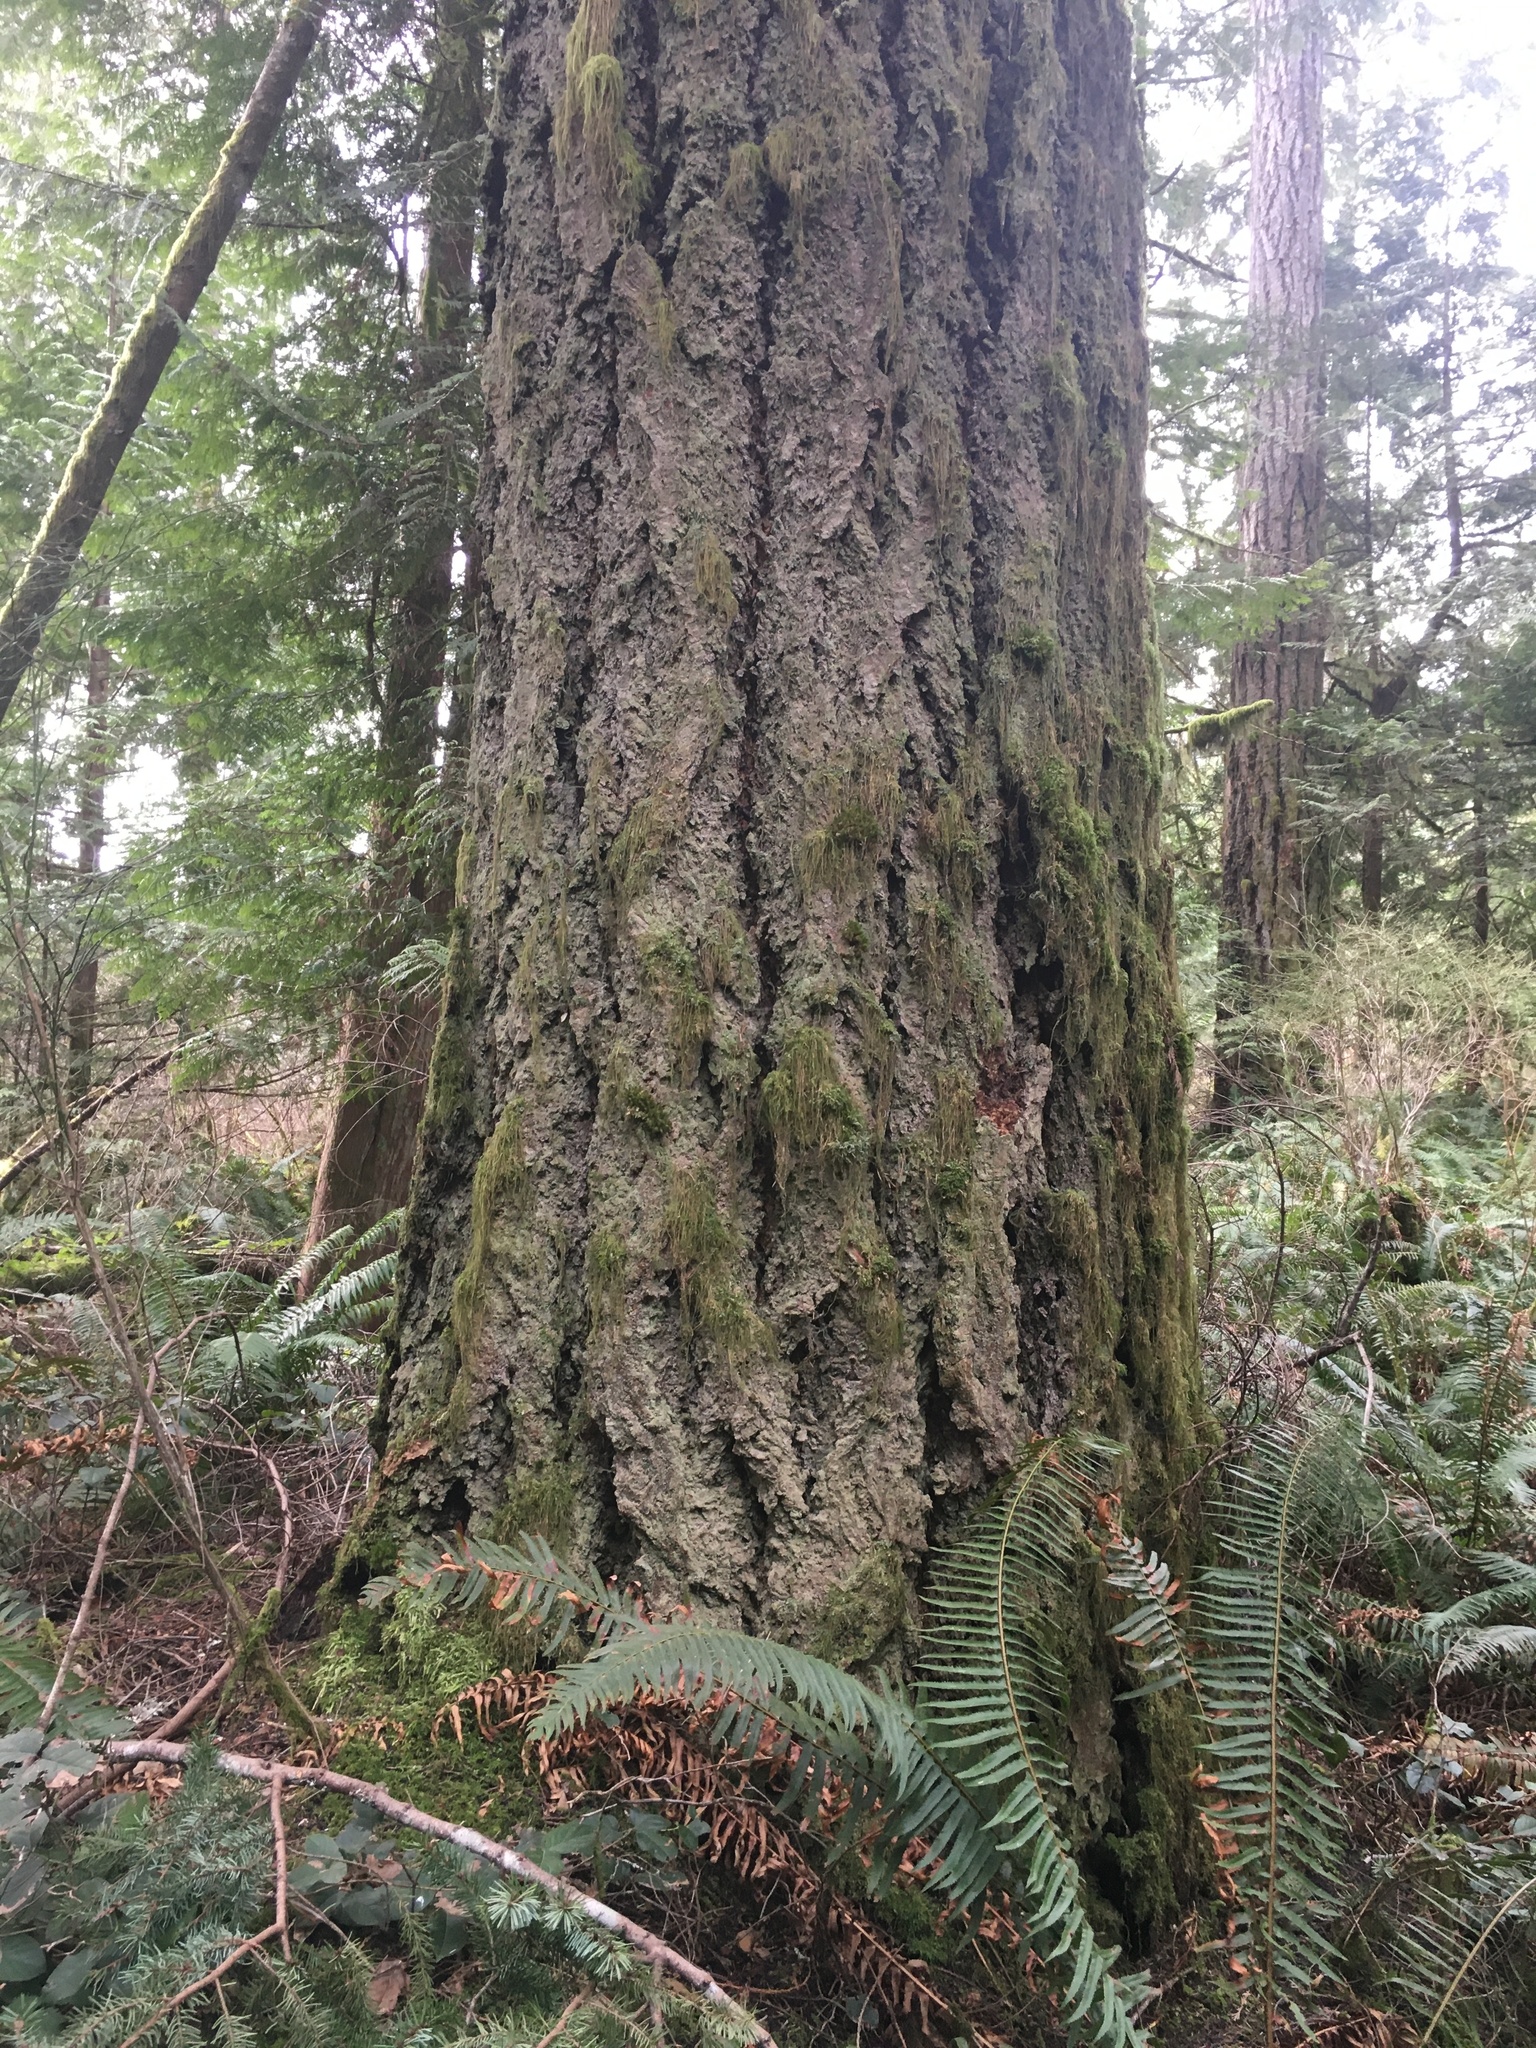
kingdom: Plantae
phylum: Tracheophyta
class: Pinopsida
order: Pinales
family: Pinaceae
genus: Pseudotsuga
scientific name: Pseudotsuga menziesii
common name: Douglas fir
